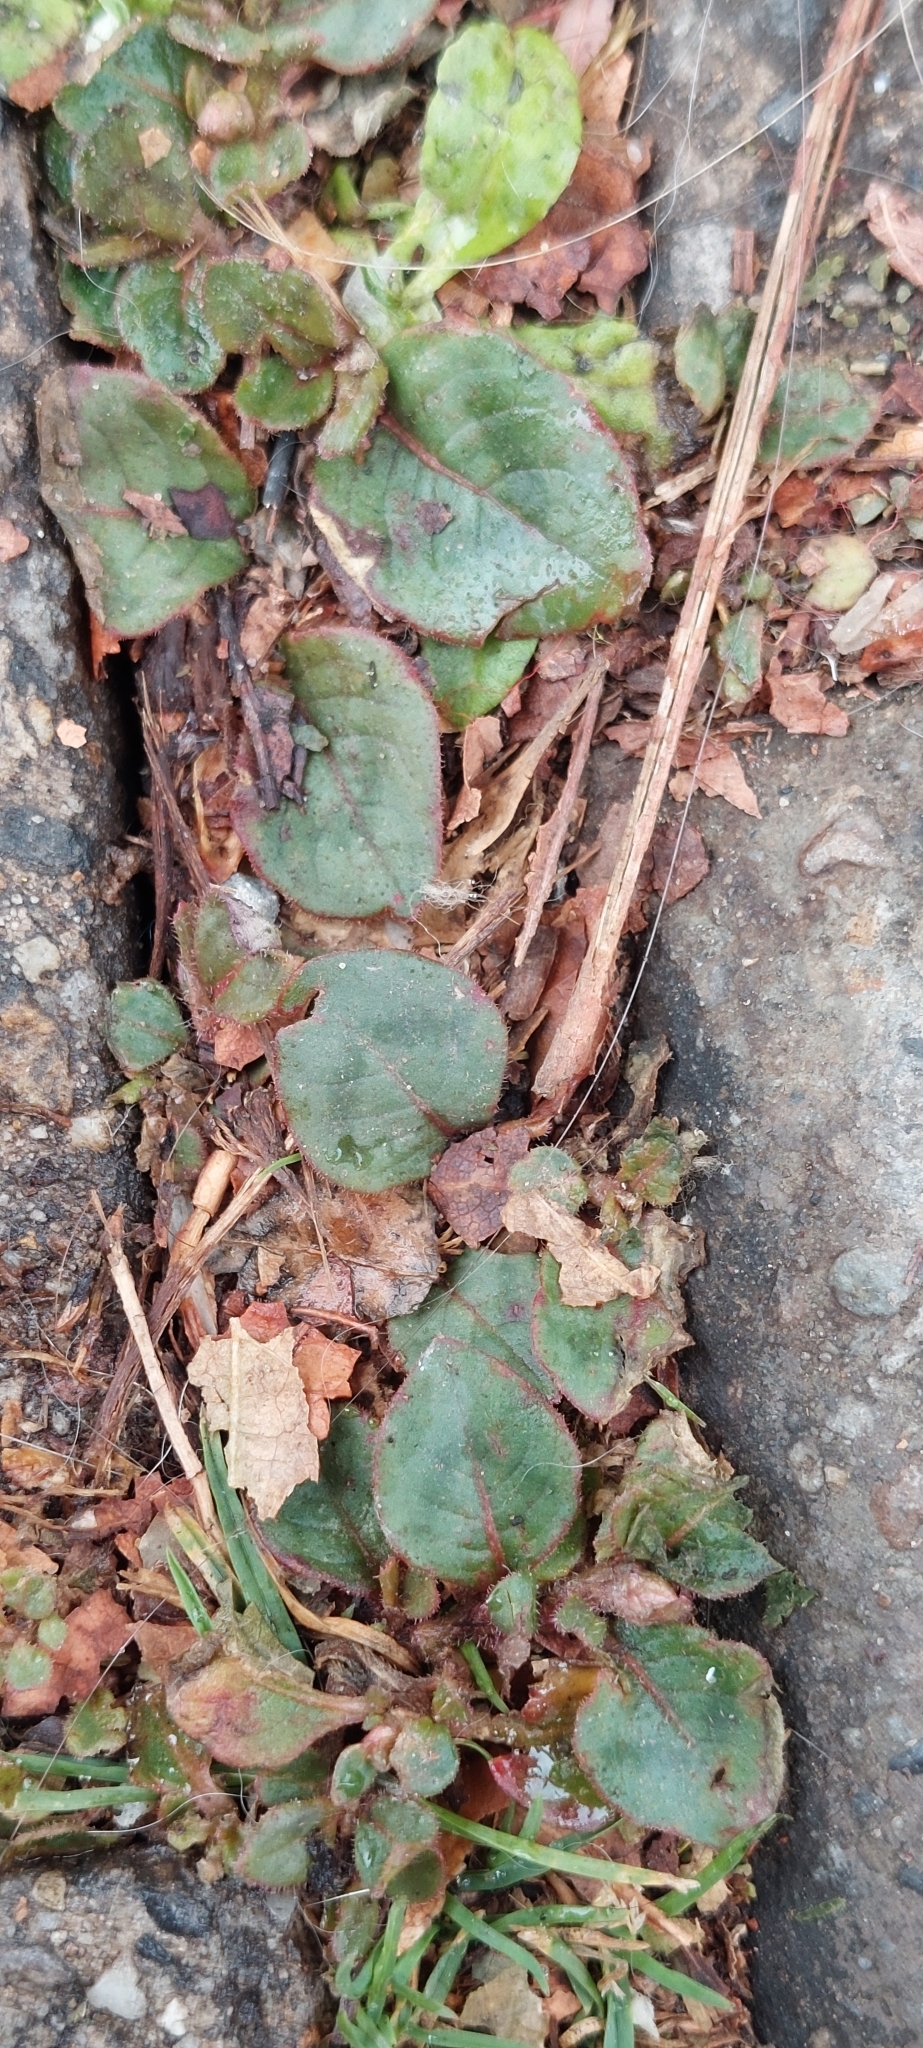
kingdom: Plantae
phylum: Tracheophyta
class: Magnoliopsida
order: Caryophyllales
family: Polygonaceae
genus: Persicaria
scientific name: Persicaria capitata
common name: Pinkhead smartweed
